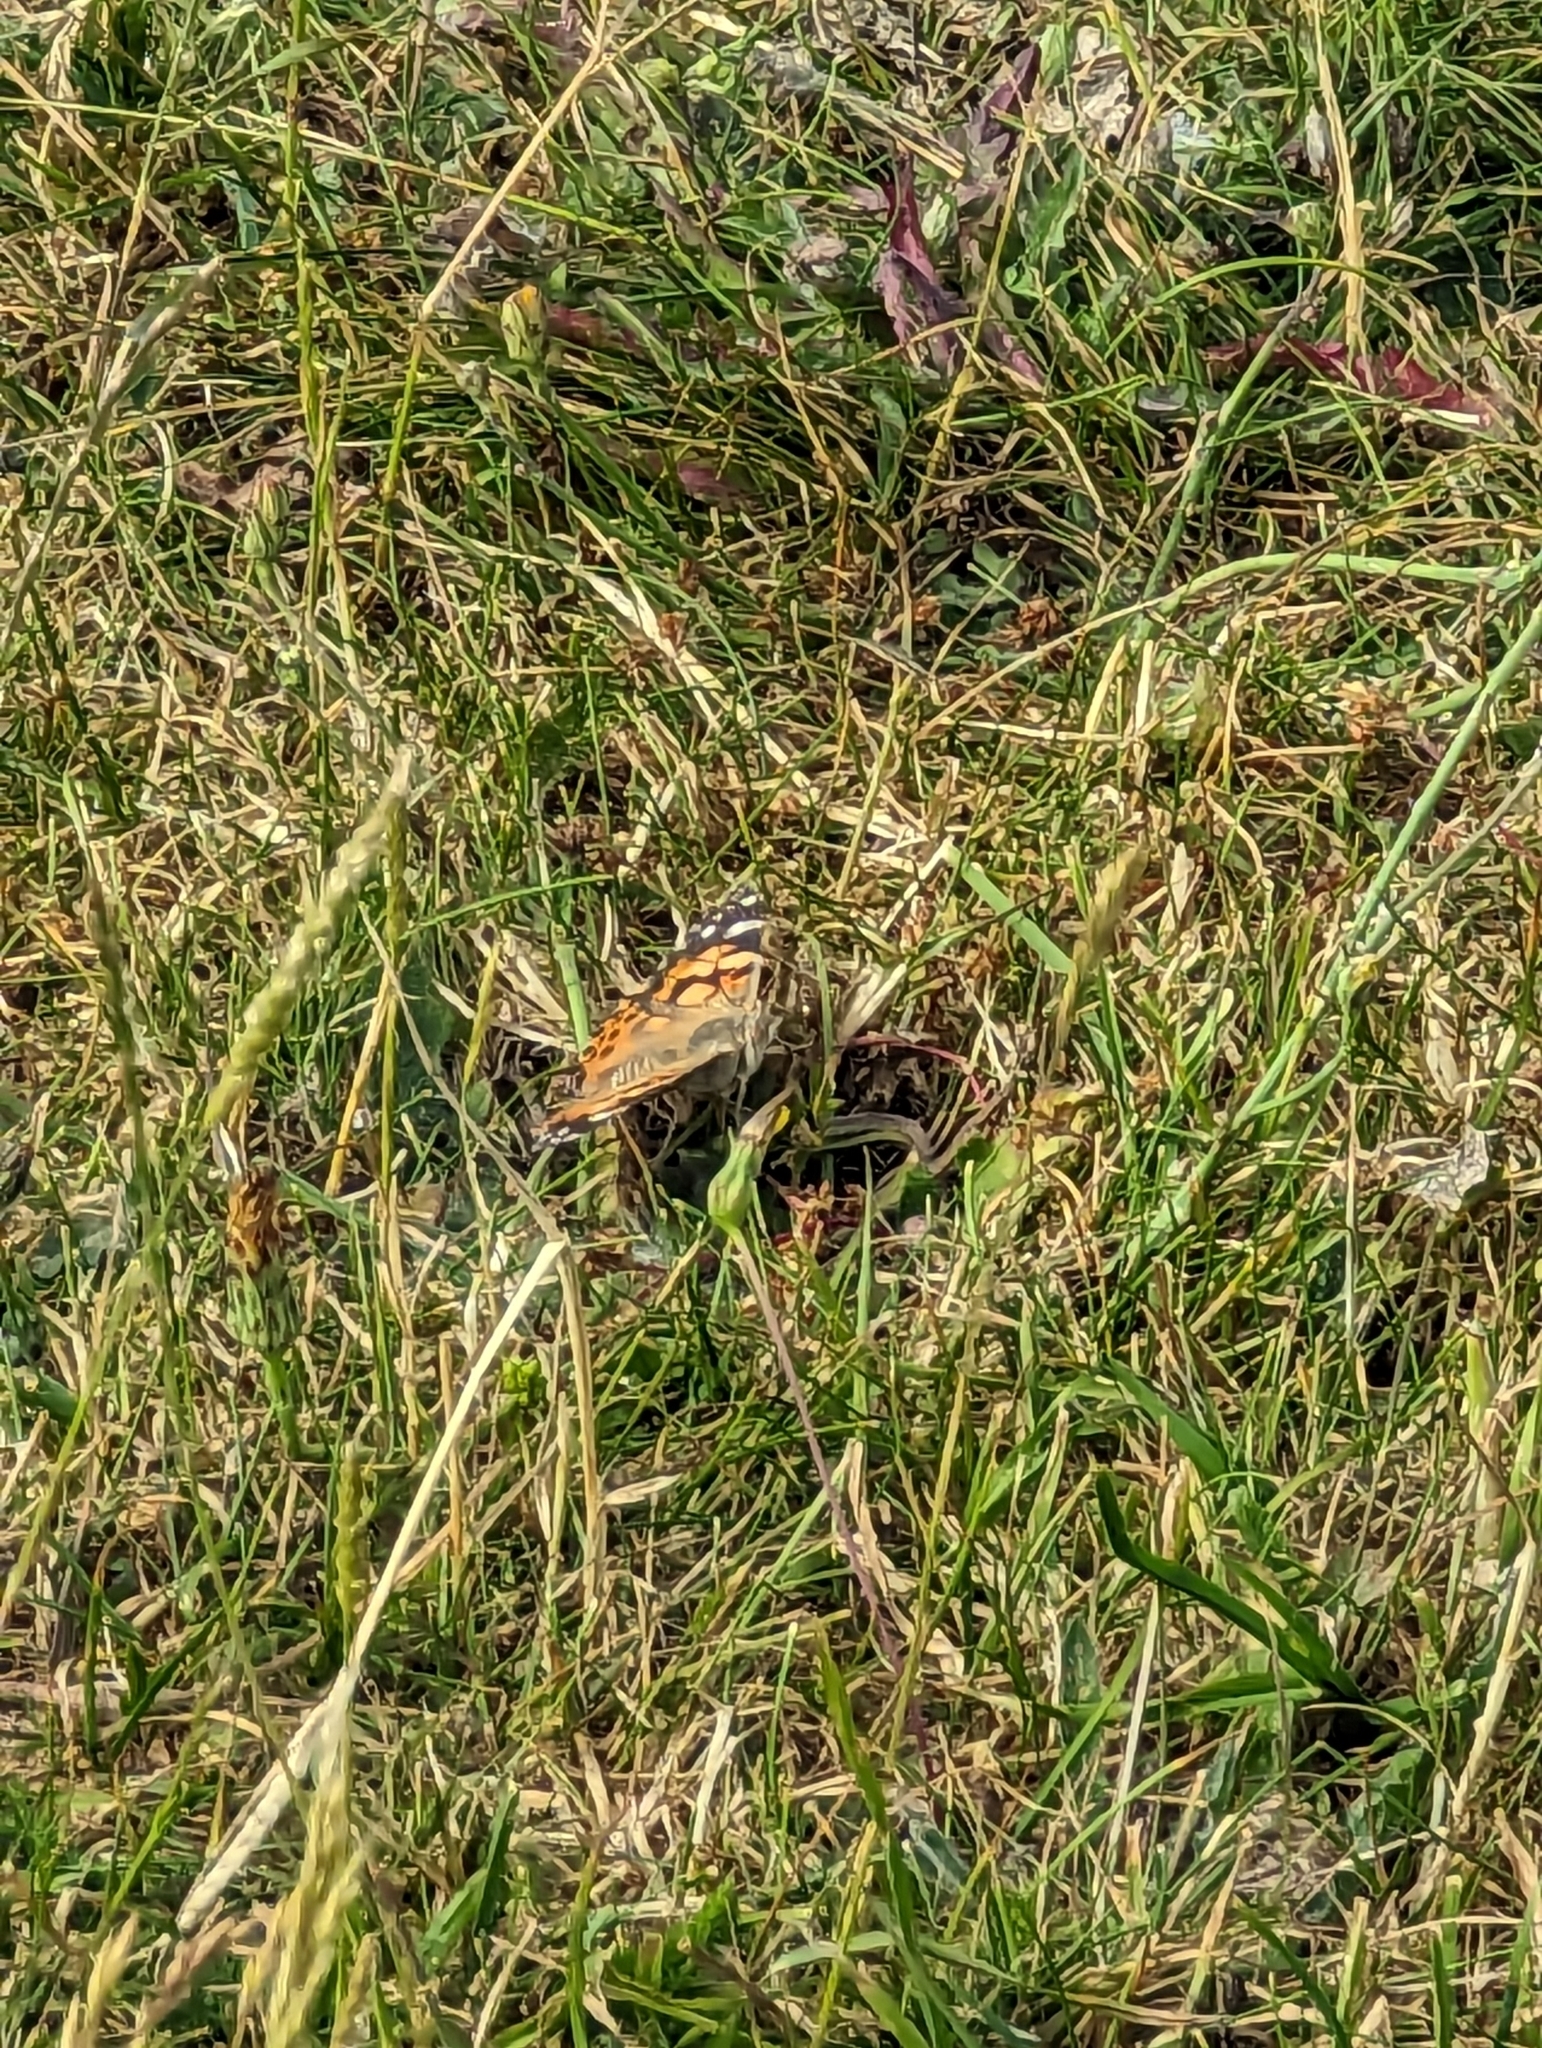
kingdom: Animalia
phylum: Arthropoda
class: Insecta
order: Lepidoptera
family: Nymphalidae
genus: Vanessa
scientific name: Vanessa cardui
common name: Painted lady
